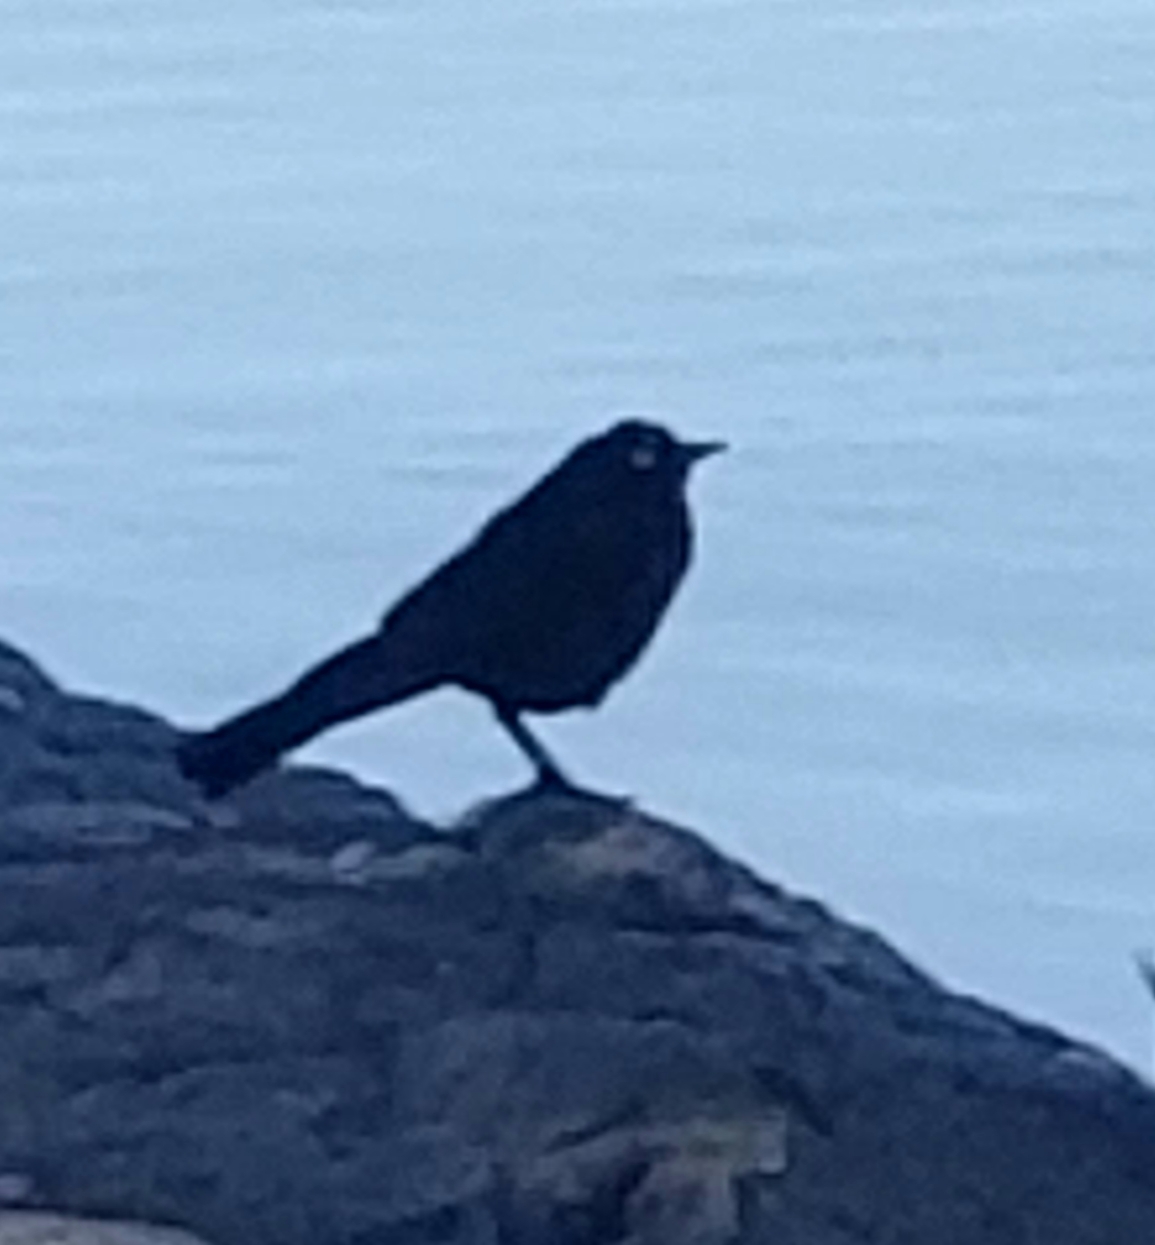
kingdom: Animalia
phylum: Chordata
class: Aves
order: Passeriformes
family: Icteridae
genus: Euphagus
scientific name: Euphagus cyanocephalus
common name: Brewer's blackbird
